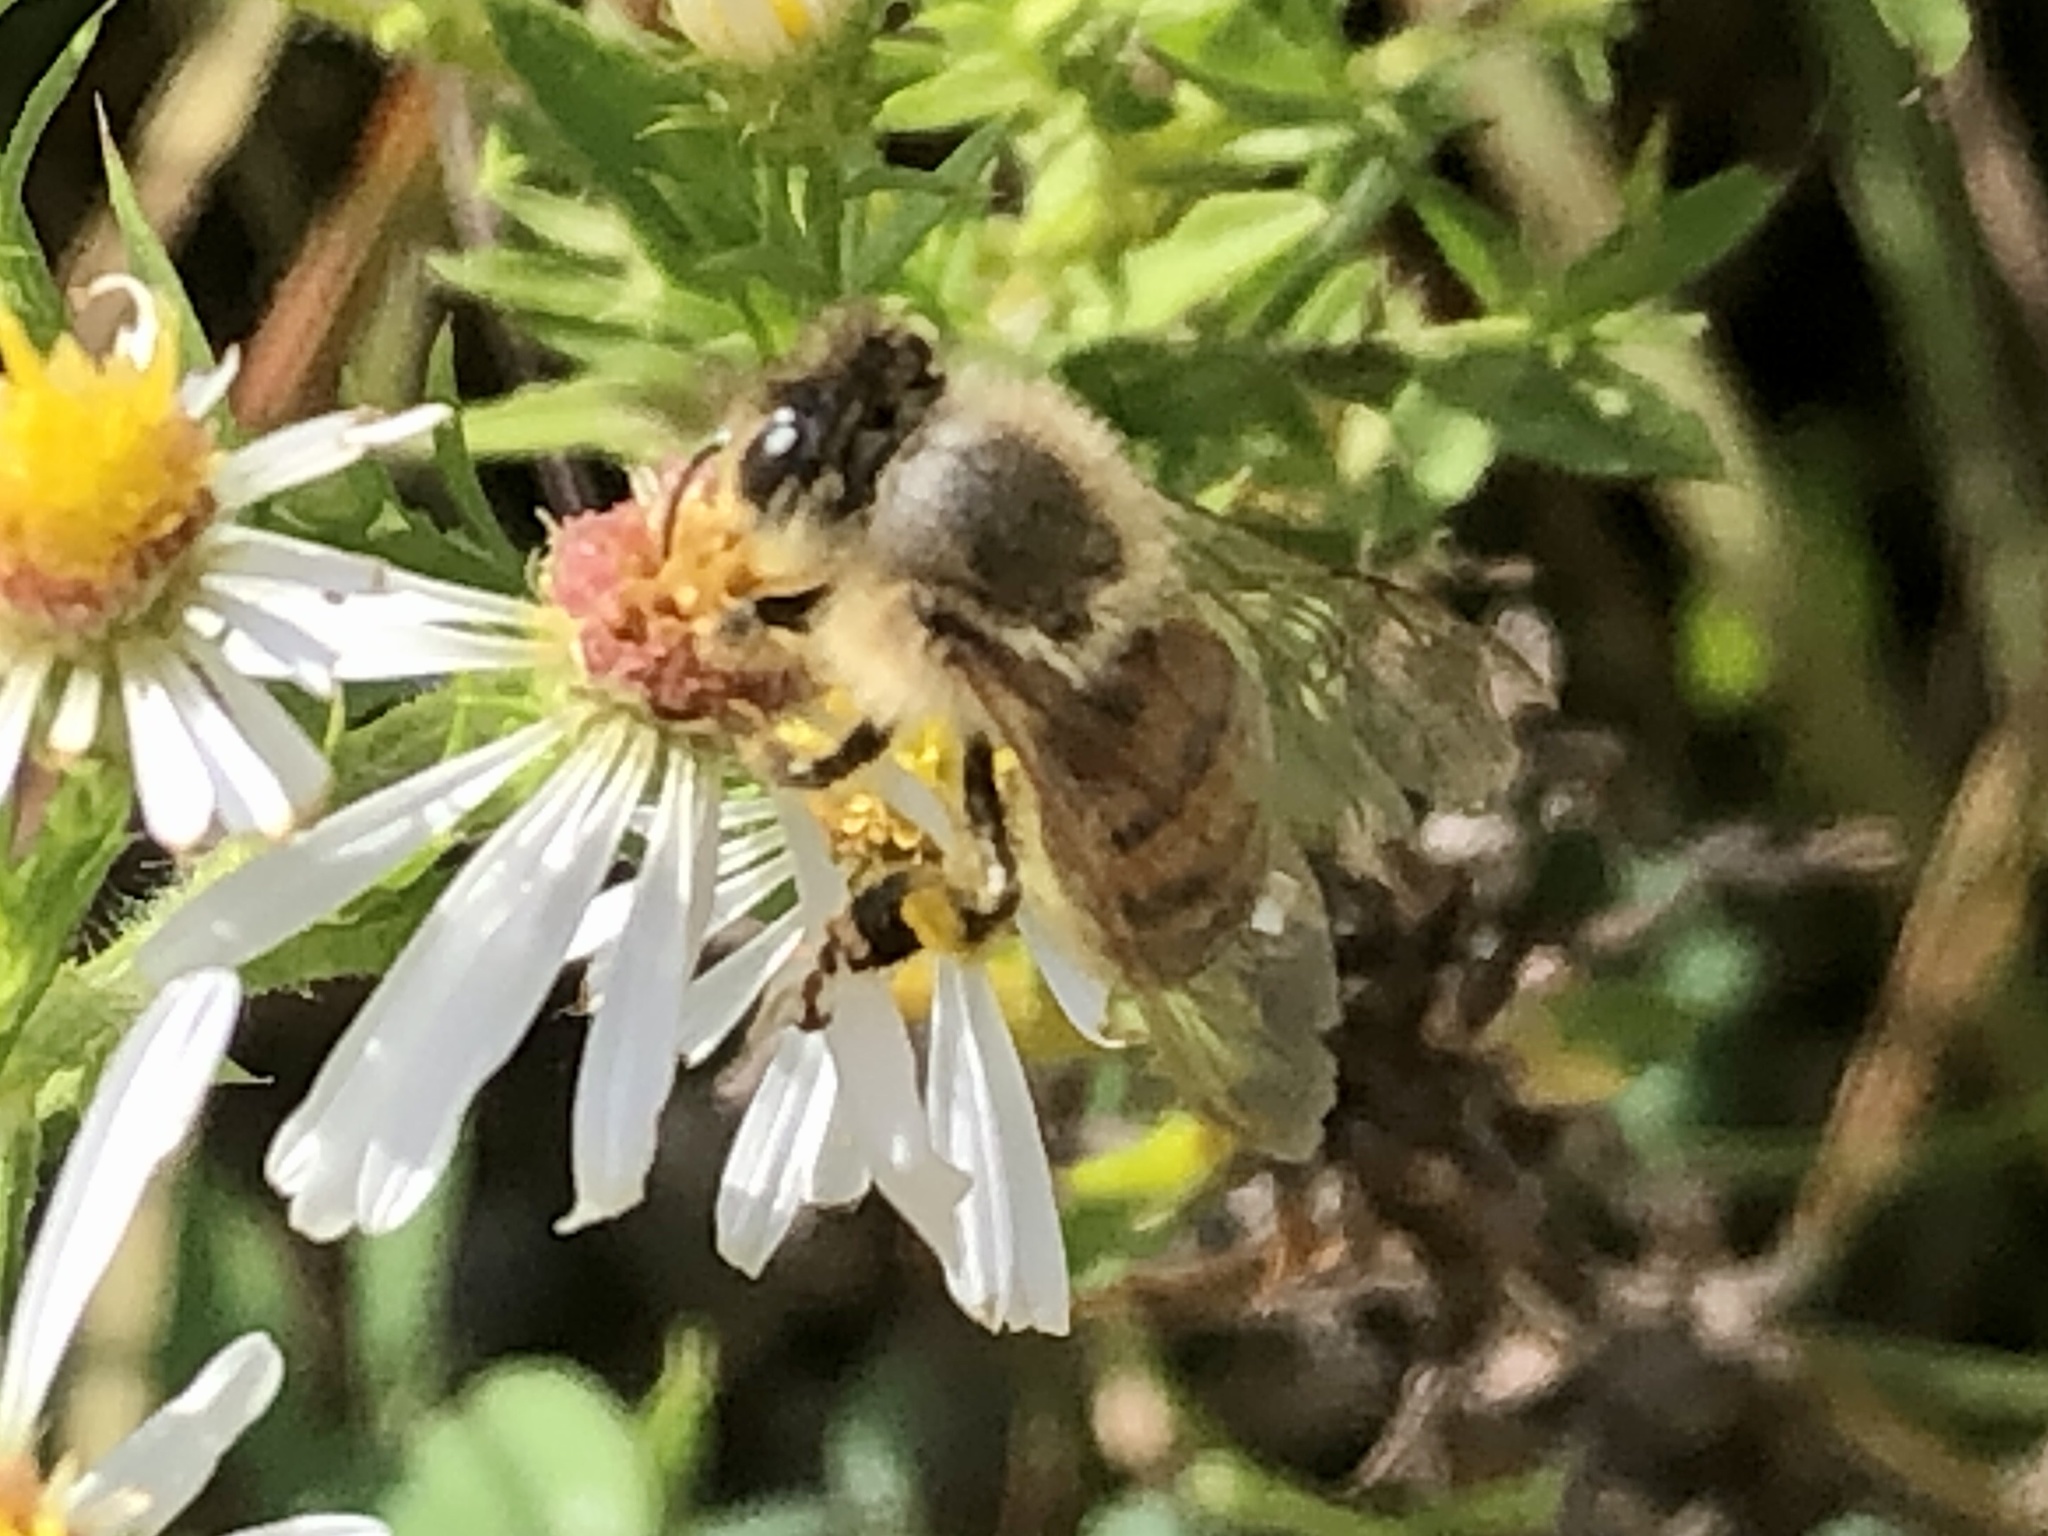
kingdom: Animalia
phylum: Arthropoda
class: Insecta
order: Hymenoptera
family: Apidae
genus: Apis
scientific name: Apis mellifera
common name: Honey bee
